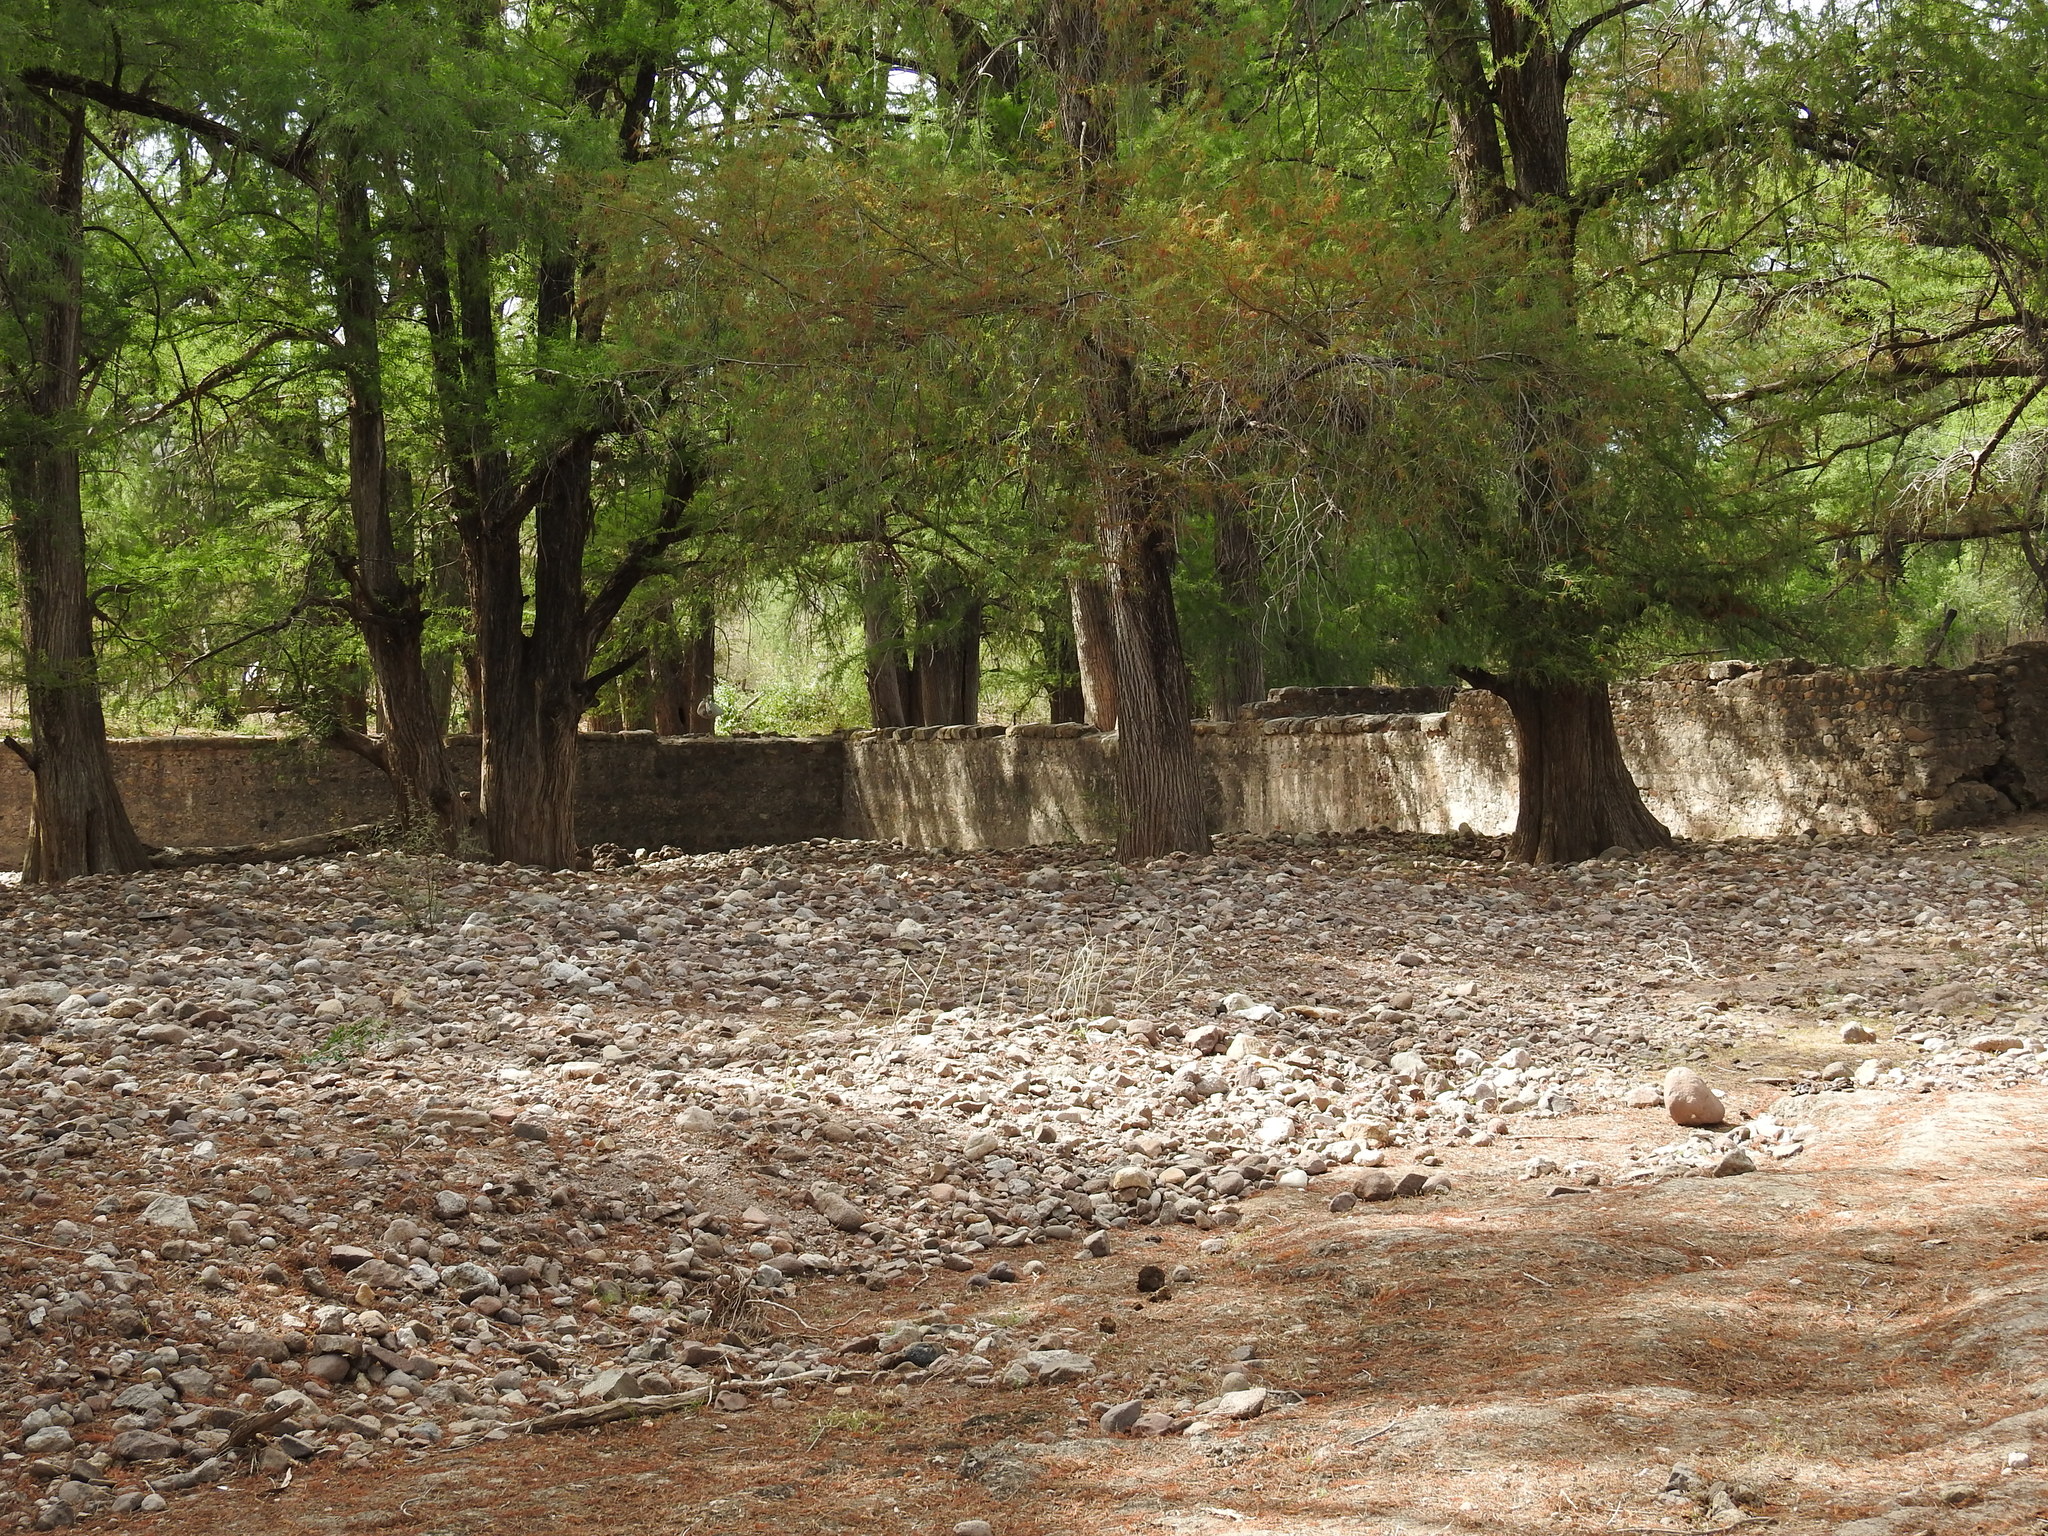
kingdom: Plantae
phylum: Tracheophyta
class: Pinopsida
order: Pinales
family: Cupressaceae
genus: Taxodium
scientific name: Taxodium mucronatum
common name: Montezume bald cypress
